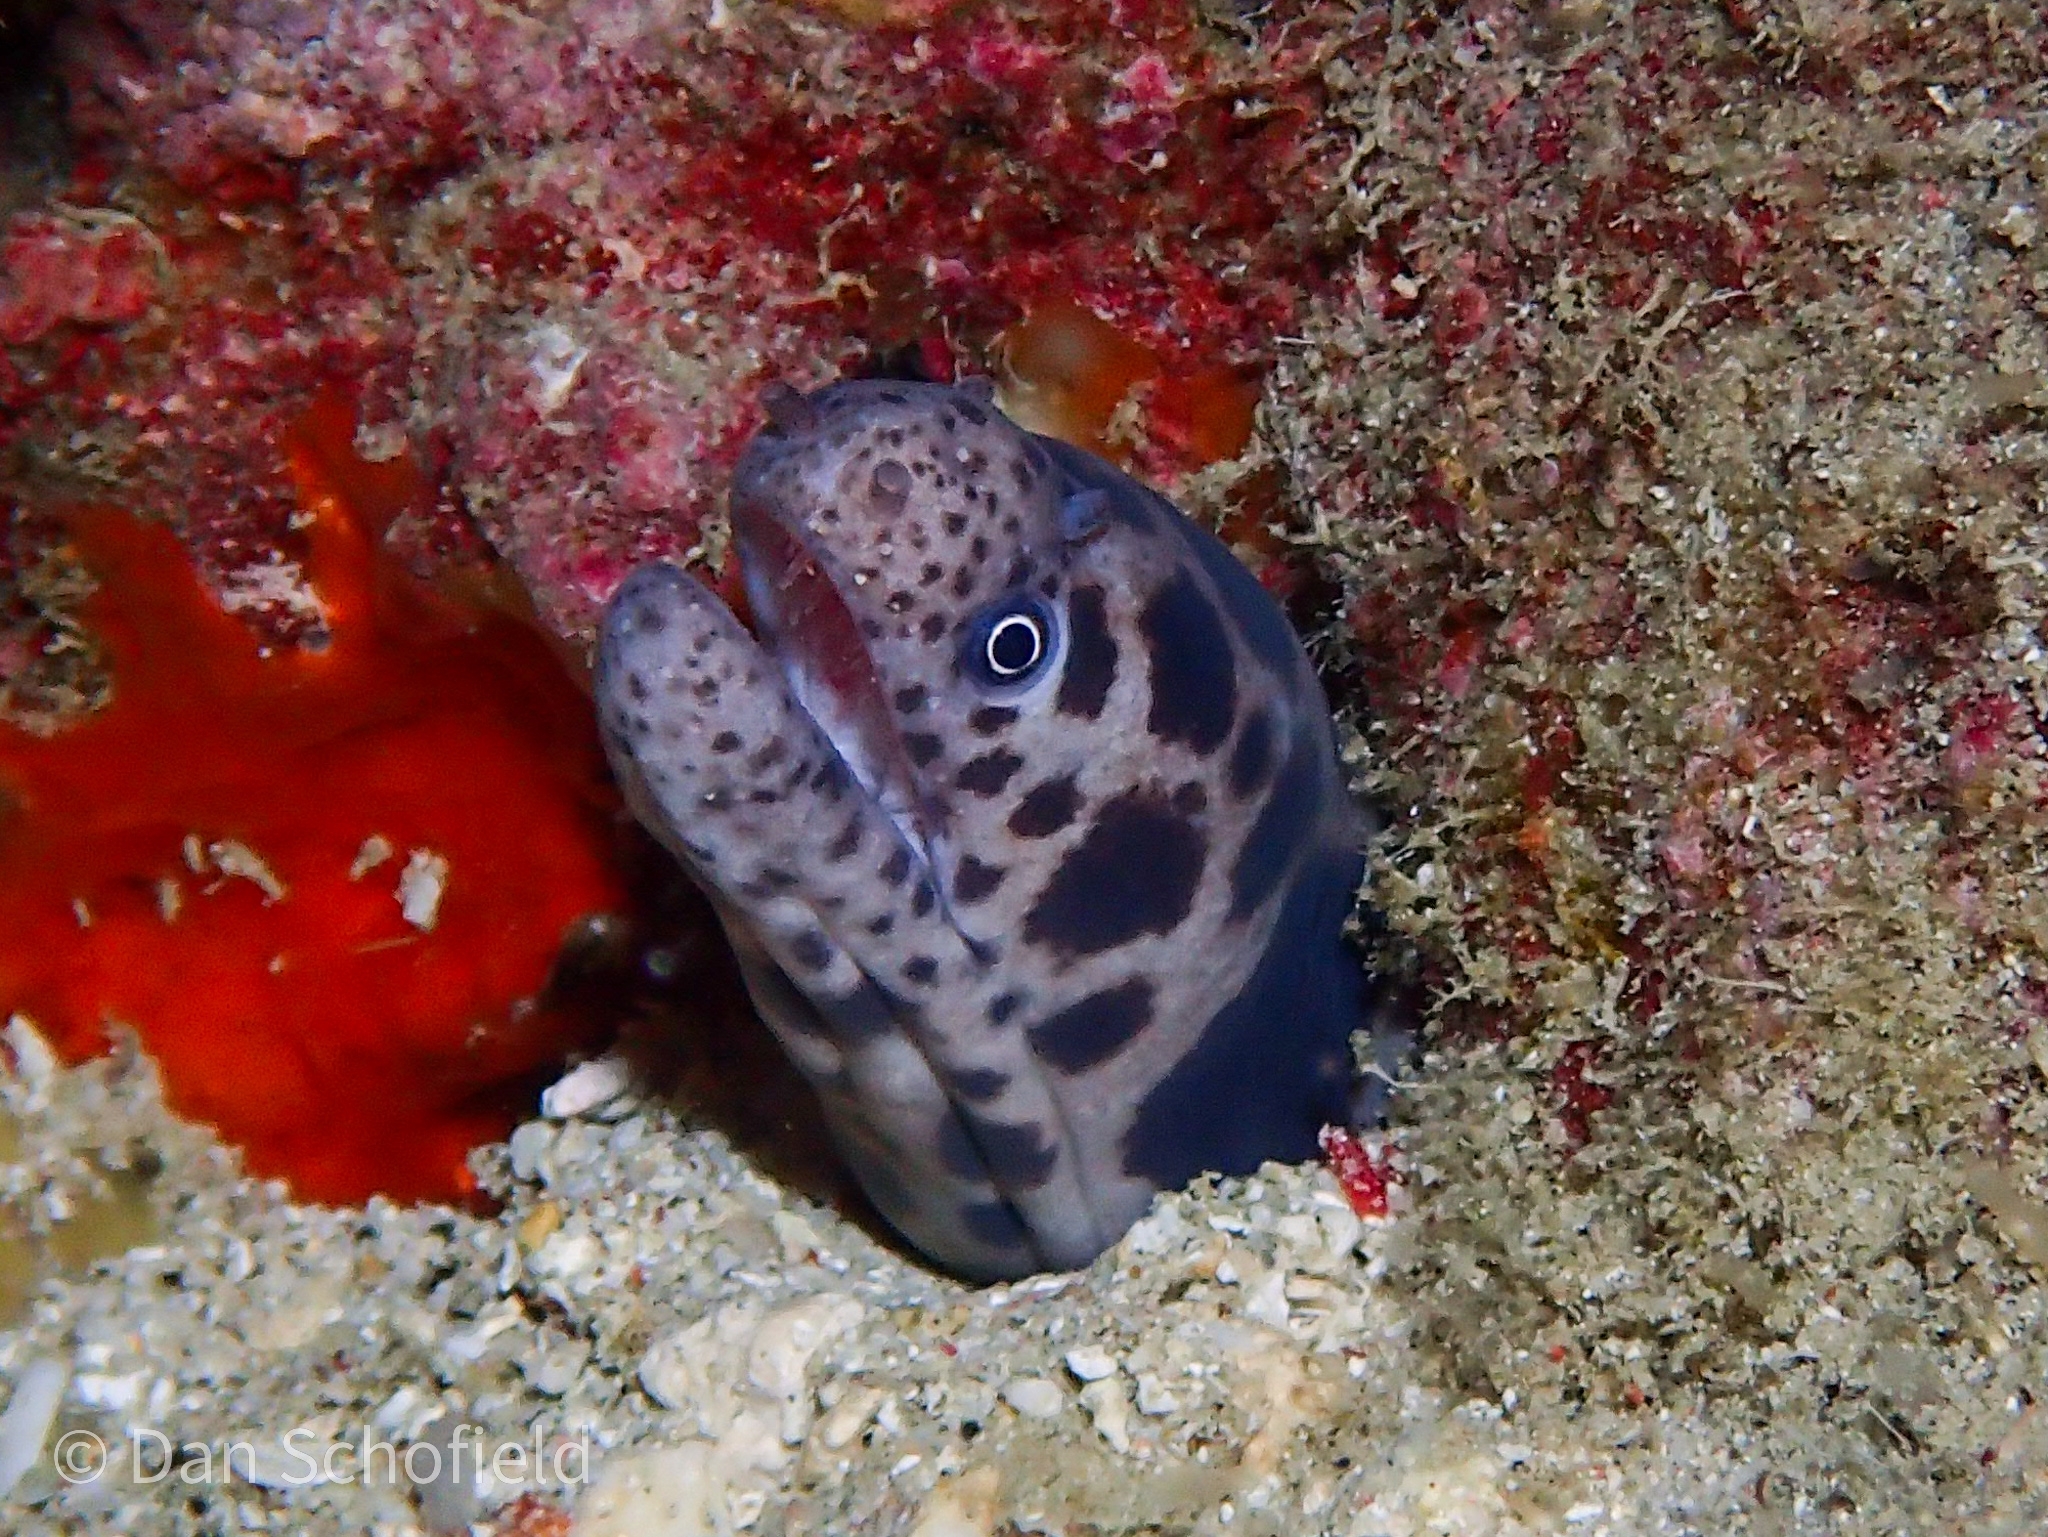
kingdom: Animalia
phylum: Chordata
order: Anguilliformes
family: Muraenidae
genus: Scuticaria
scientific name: Scuticaria tigrina
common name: Tiger moray
